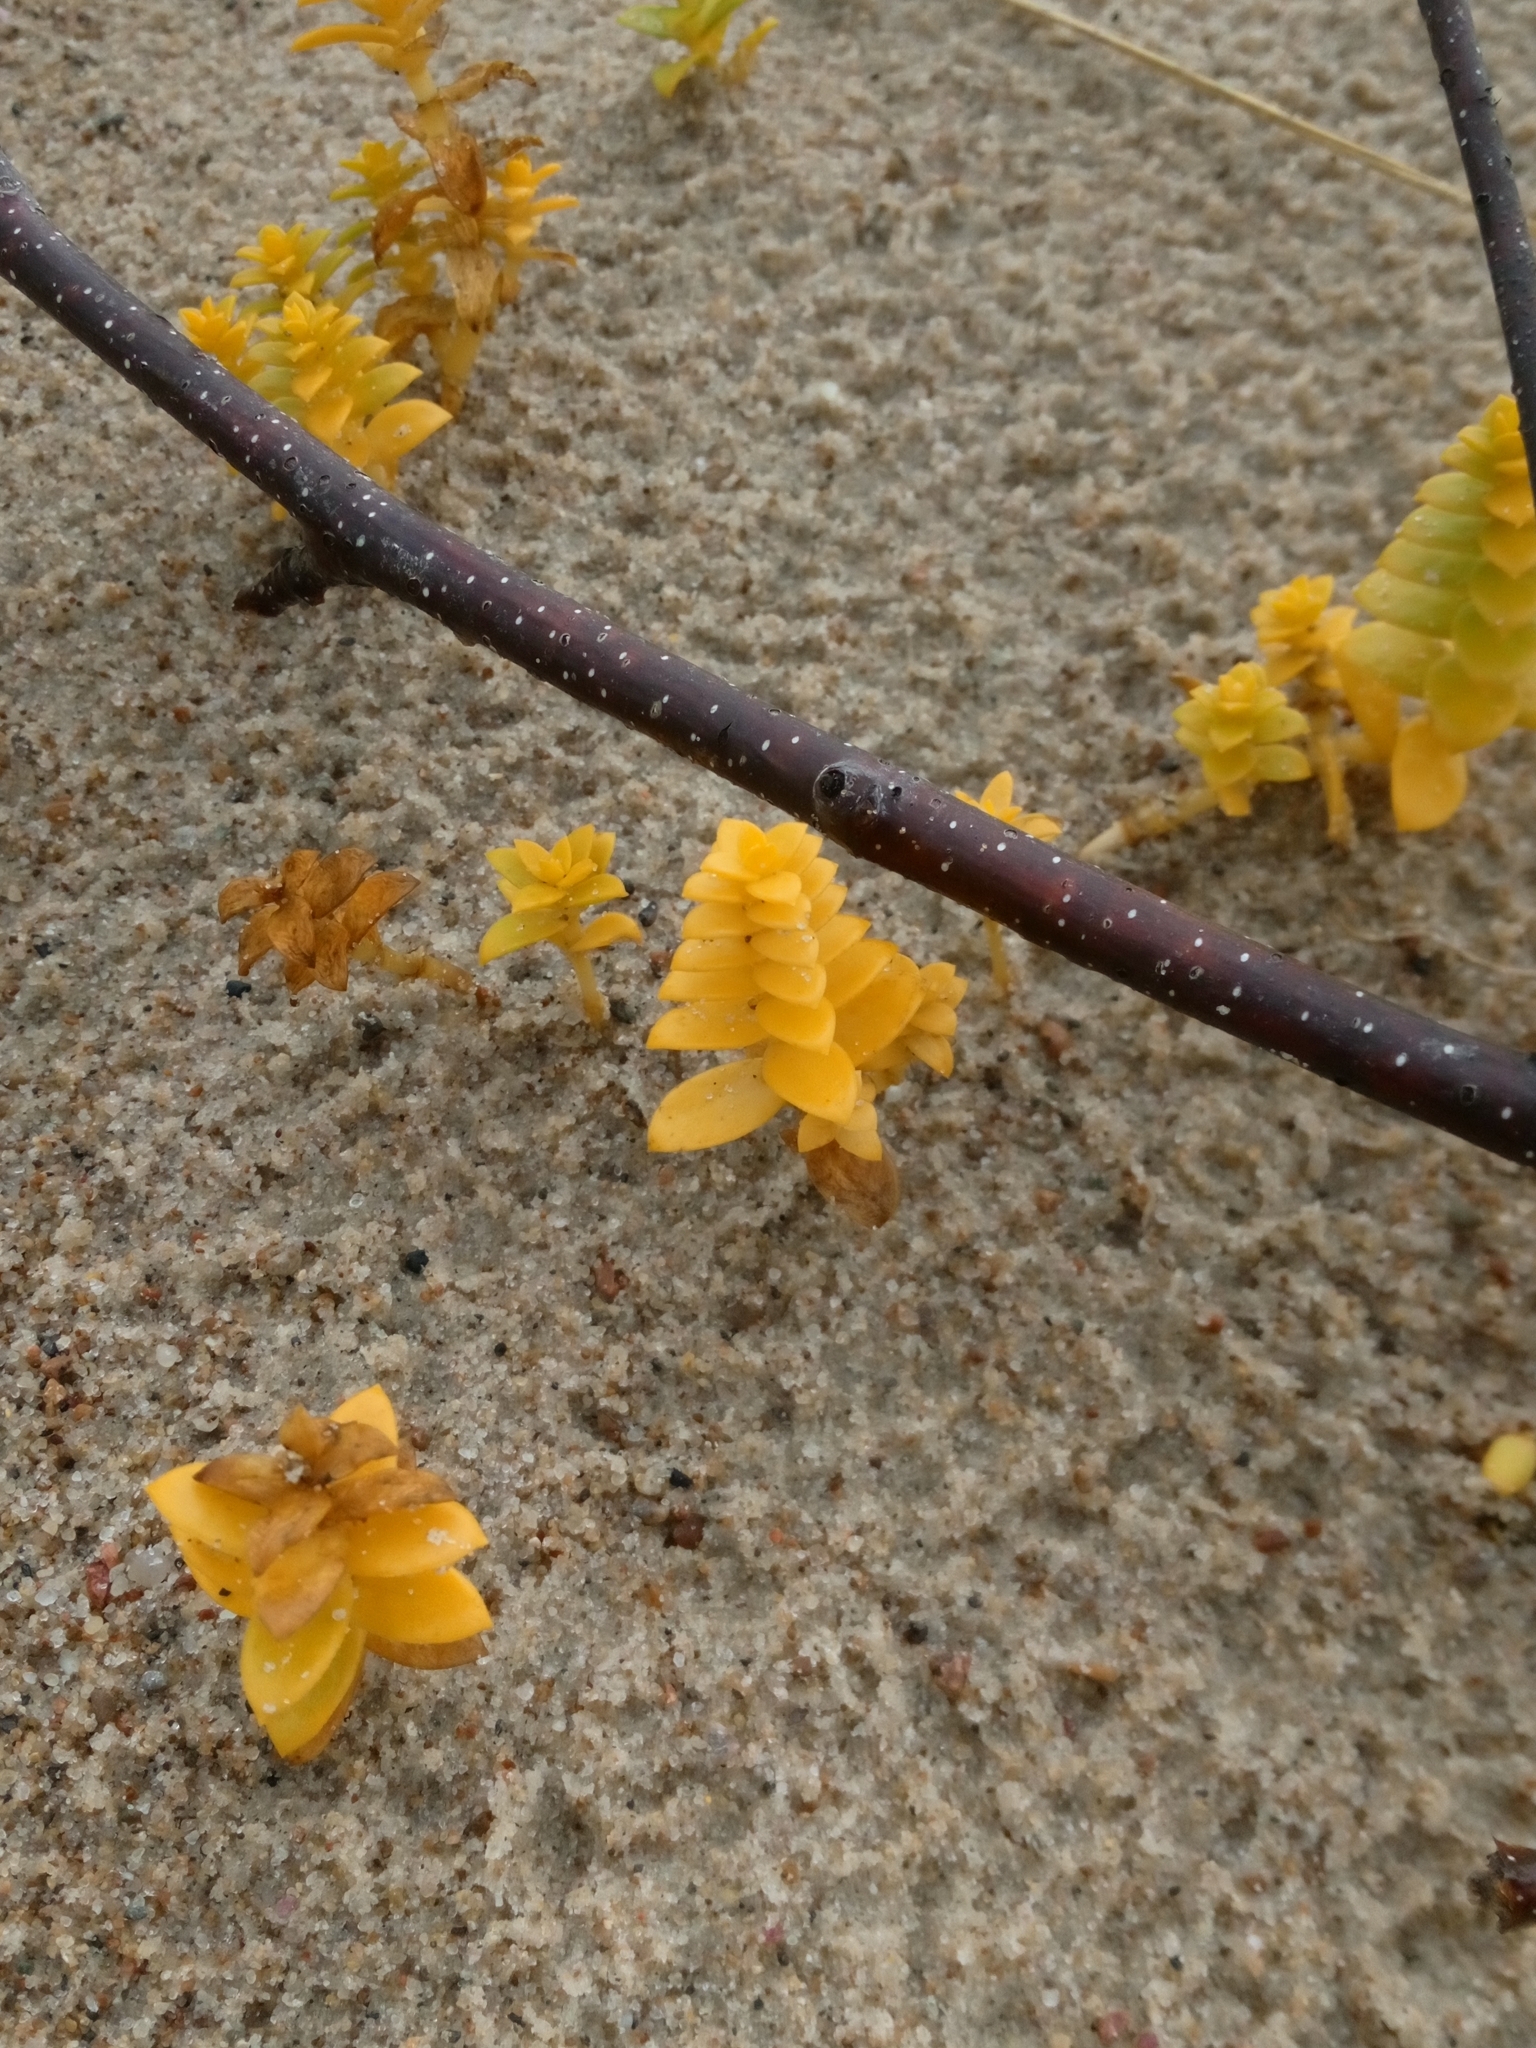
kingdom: Plantae
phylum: Tracheophyta
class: Magnoliopsida
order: Caryophyllales
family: Caryophyllaceae
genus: Honckenya
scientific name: Honckenya peploides
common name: Sea sandwort
